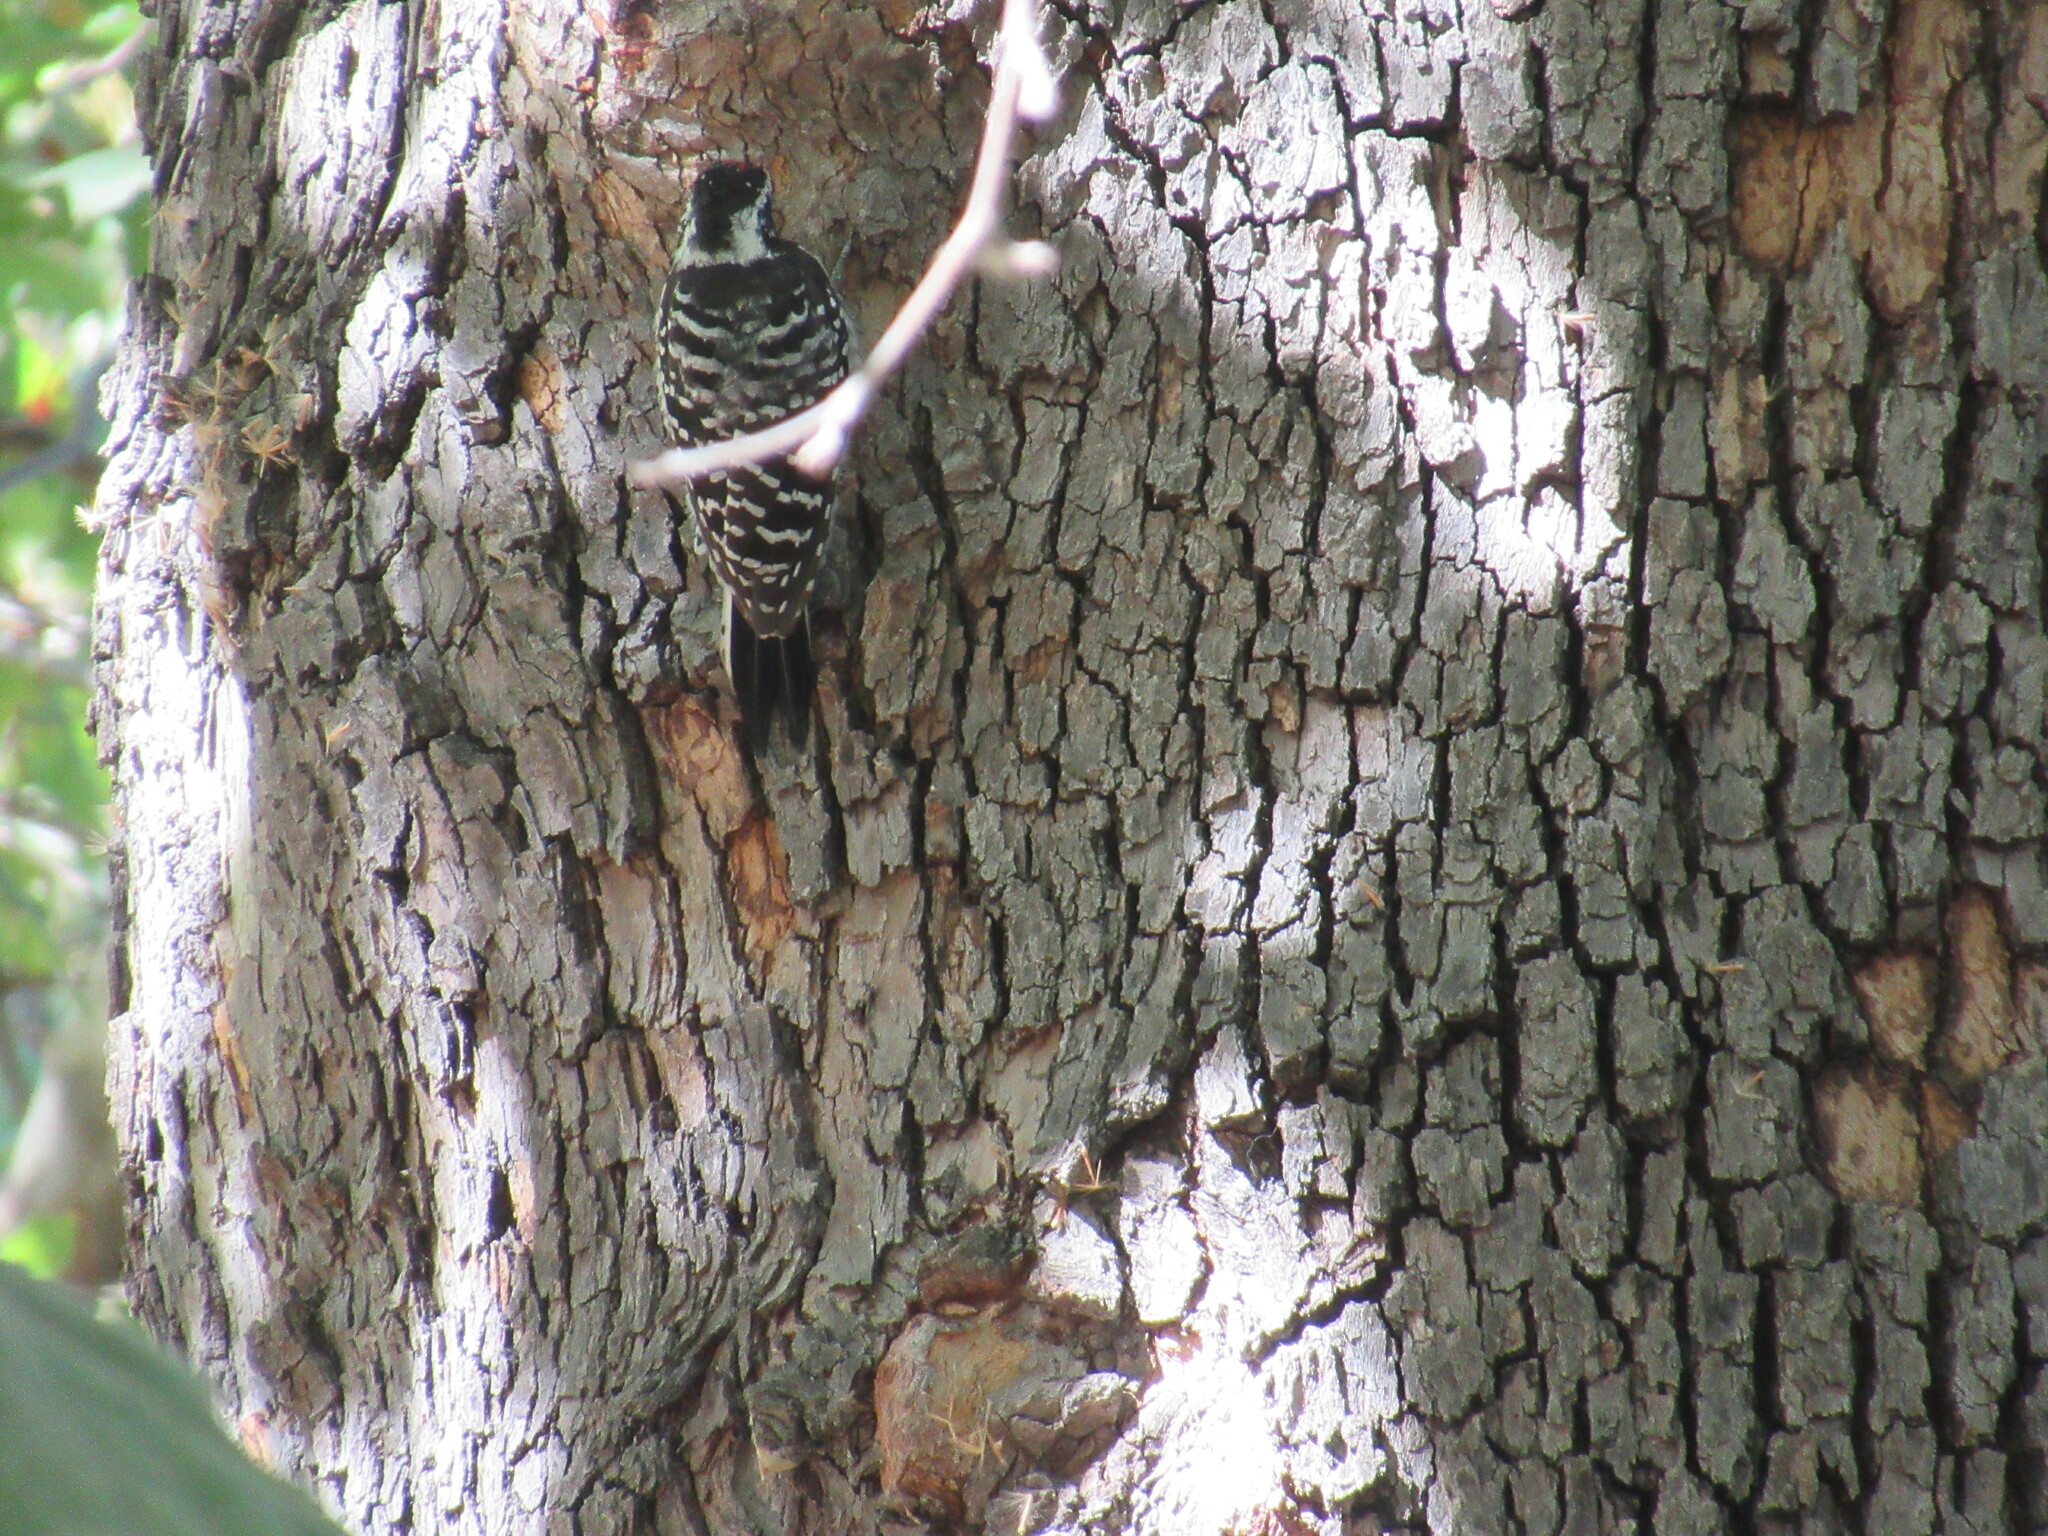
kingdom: Animalia
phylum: Chordata
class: Aves
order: Piciformes
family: Picidae
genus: Dryobates
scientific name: Dryobates nuttallii
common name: Nuttall's woodpecker
